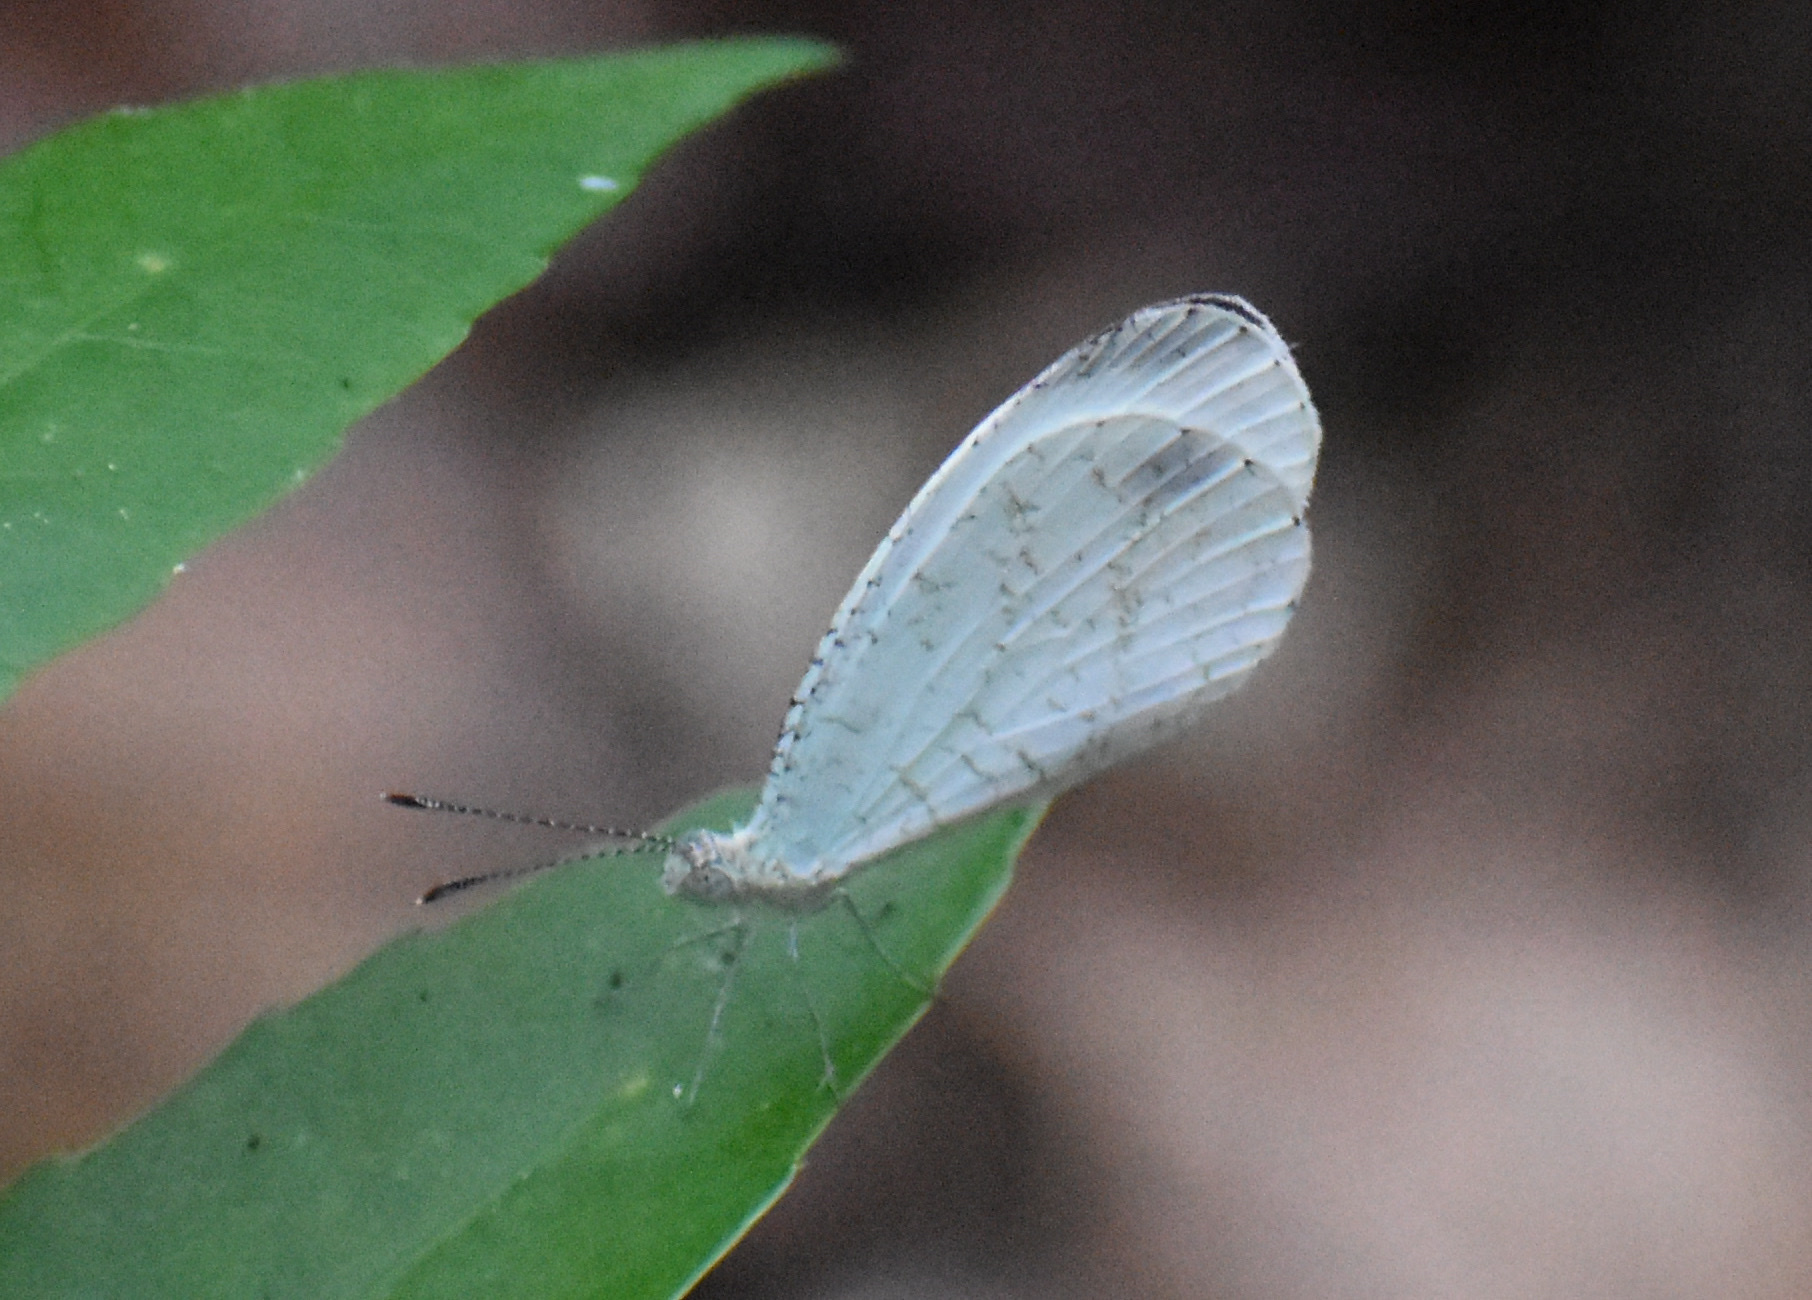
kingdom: Animalia
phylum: Arthropoda
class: Insecta
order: Lepidoptera
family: Pieridae
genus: Leptosia
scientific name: Leptosia alcesta
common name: African wood white
